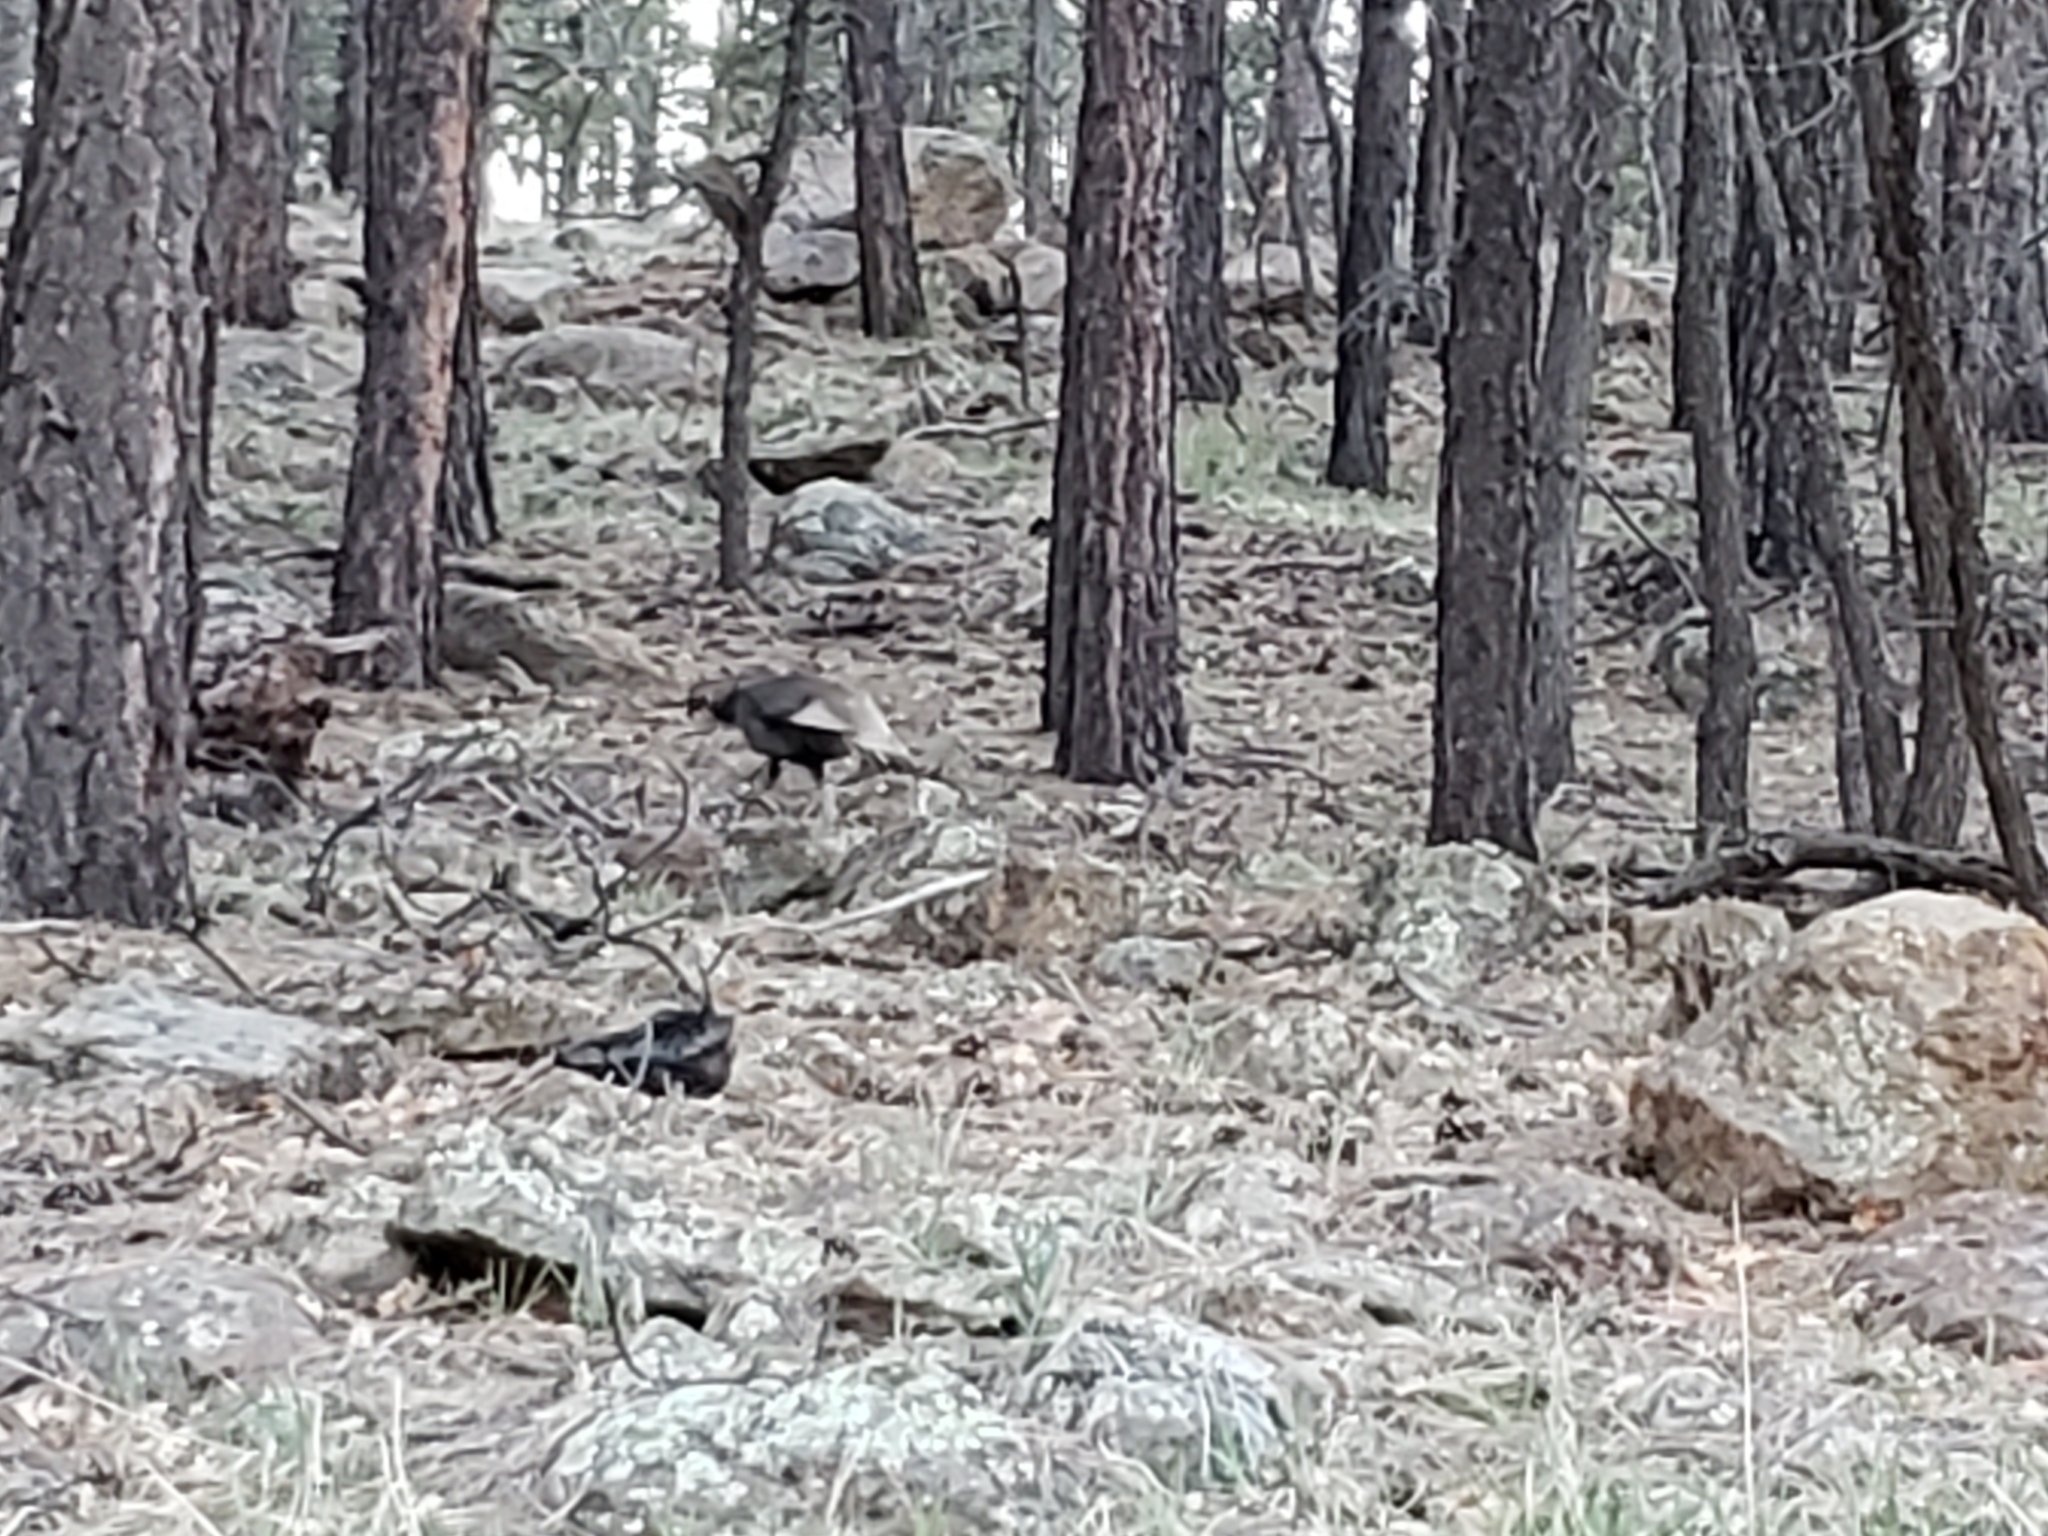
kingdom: Animalia
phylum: Chordata
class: Aves
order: Galliformes
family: Phasianidae
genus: Meleagris
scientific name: Meleagris gallopavo
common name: Wild turkey
